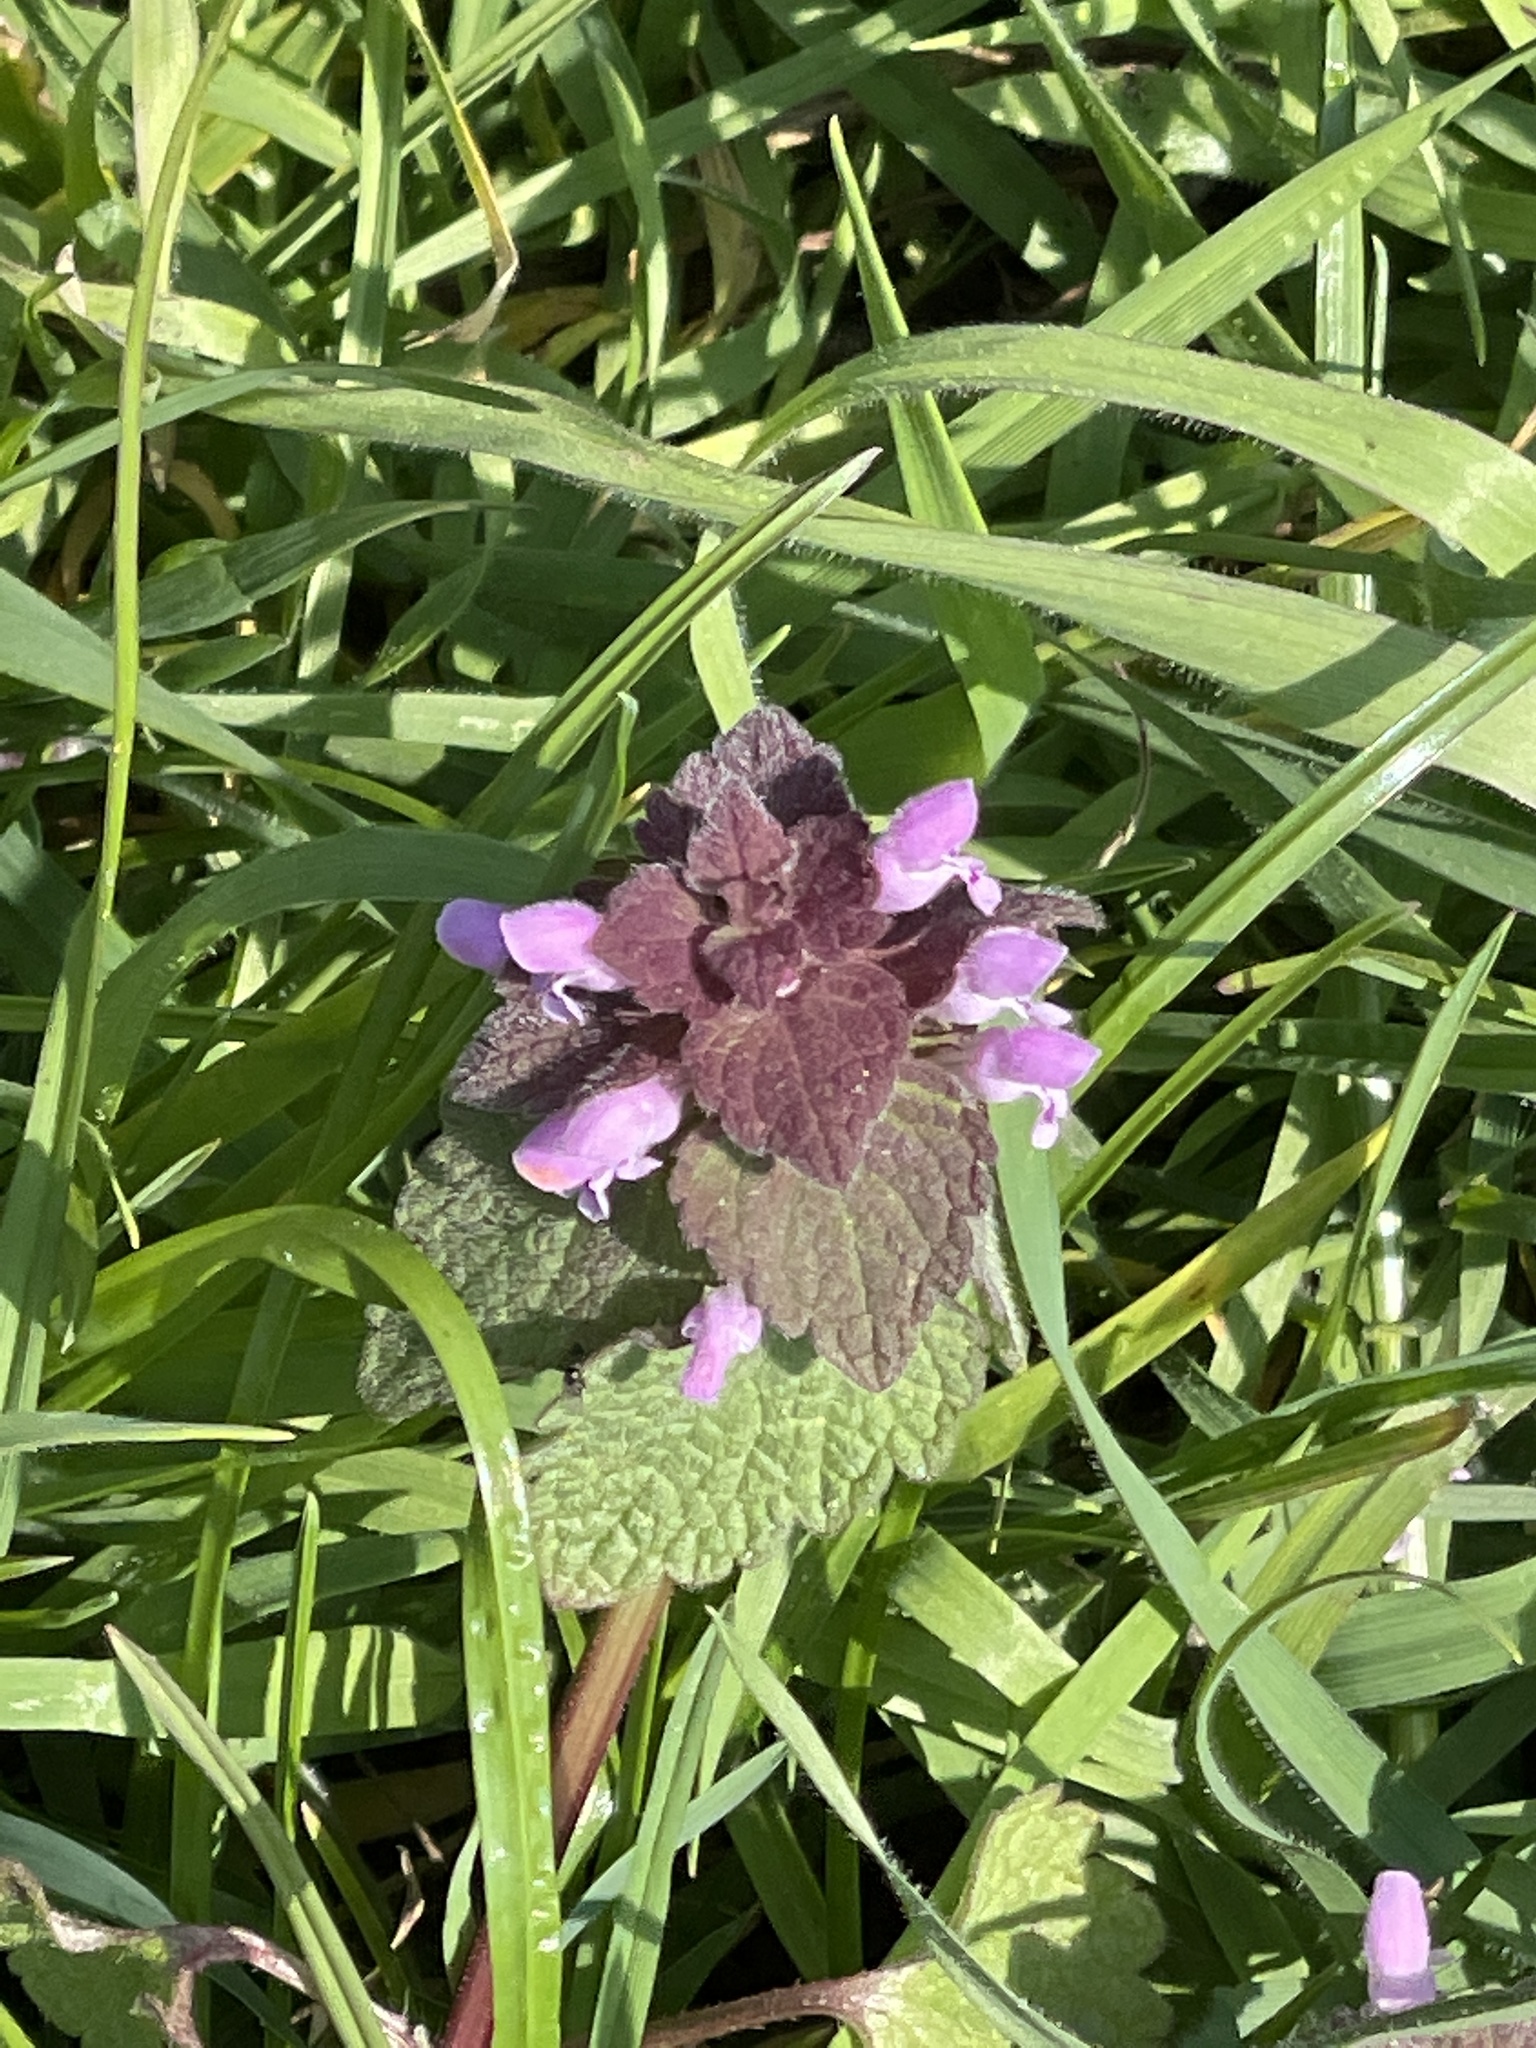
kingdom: Plantae
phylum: Tracheophyta
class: Magnoliopsida
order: Lamiales
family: Lamiaceae
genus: Lamium
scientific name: Lamium purpureum
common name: Red dead-nettle
